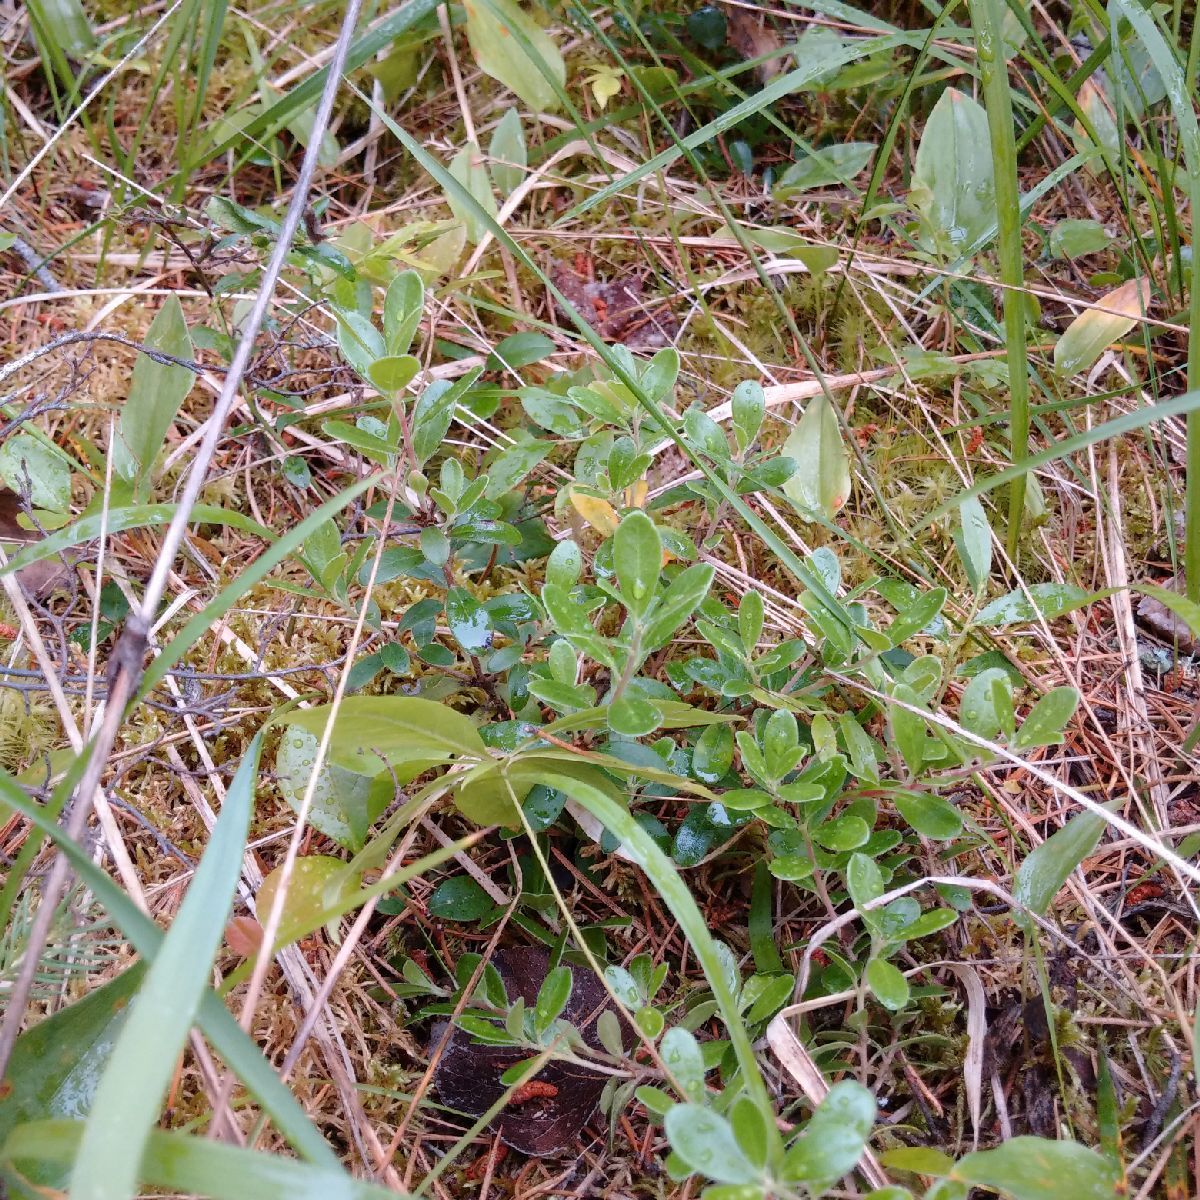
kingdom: Plantae
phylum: Tracheophyta
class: Magnoliopsida
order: Ericales
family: Ericaceae
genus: Arctostaphylos
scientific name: Arctostaphylos uva-ursi
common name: Bearberry
